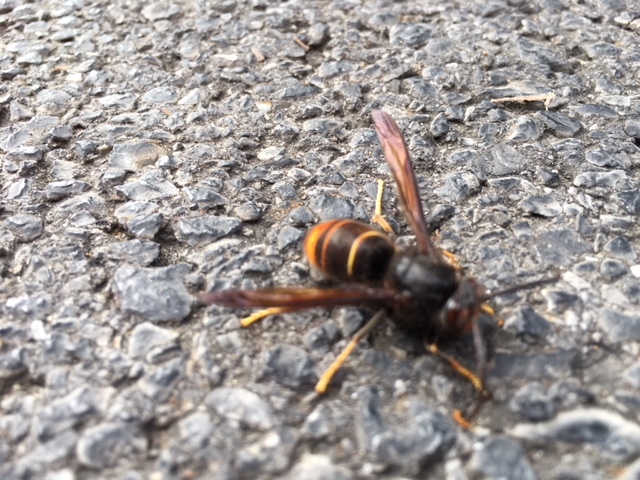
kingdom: Animalia
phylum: Arthropoda
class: Insecta
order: Hymenoptera
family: Vespidae
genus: Vespa
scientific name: Vespa velutina
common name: Asian hornet
